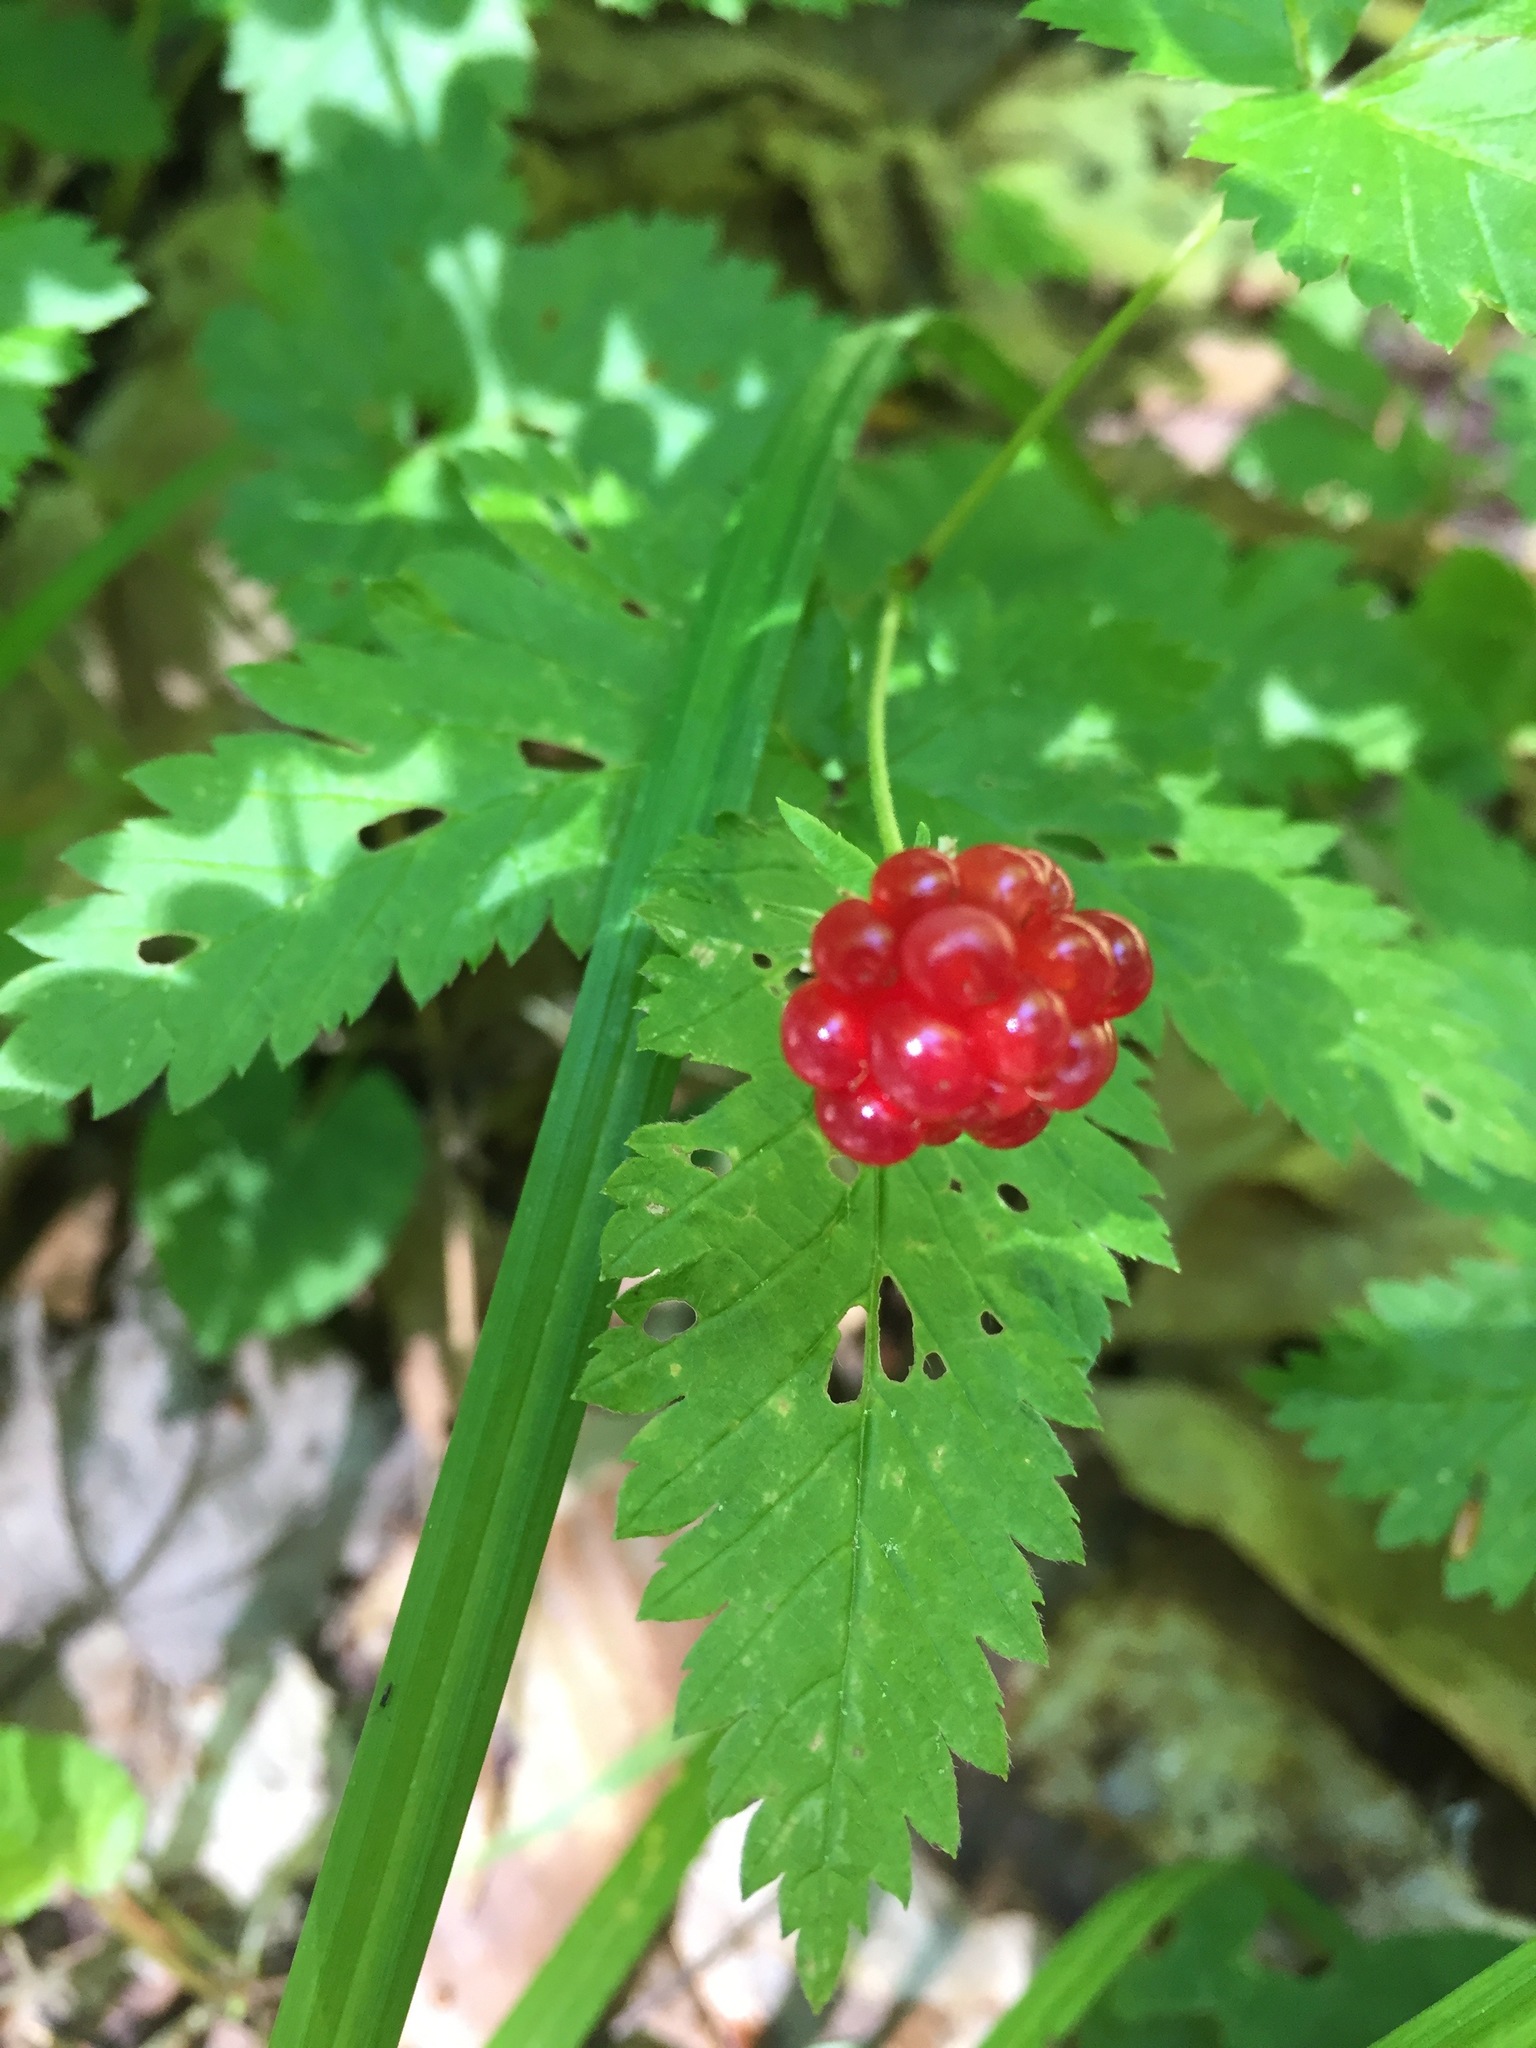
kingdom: Plantae
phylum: Tracheophyta
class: Magnoliopsida
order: Rosales
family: Rosaceae
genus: Rubus
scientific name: Rubus pubescens
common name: Dwarf raspberry
